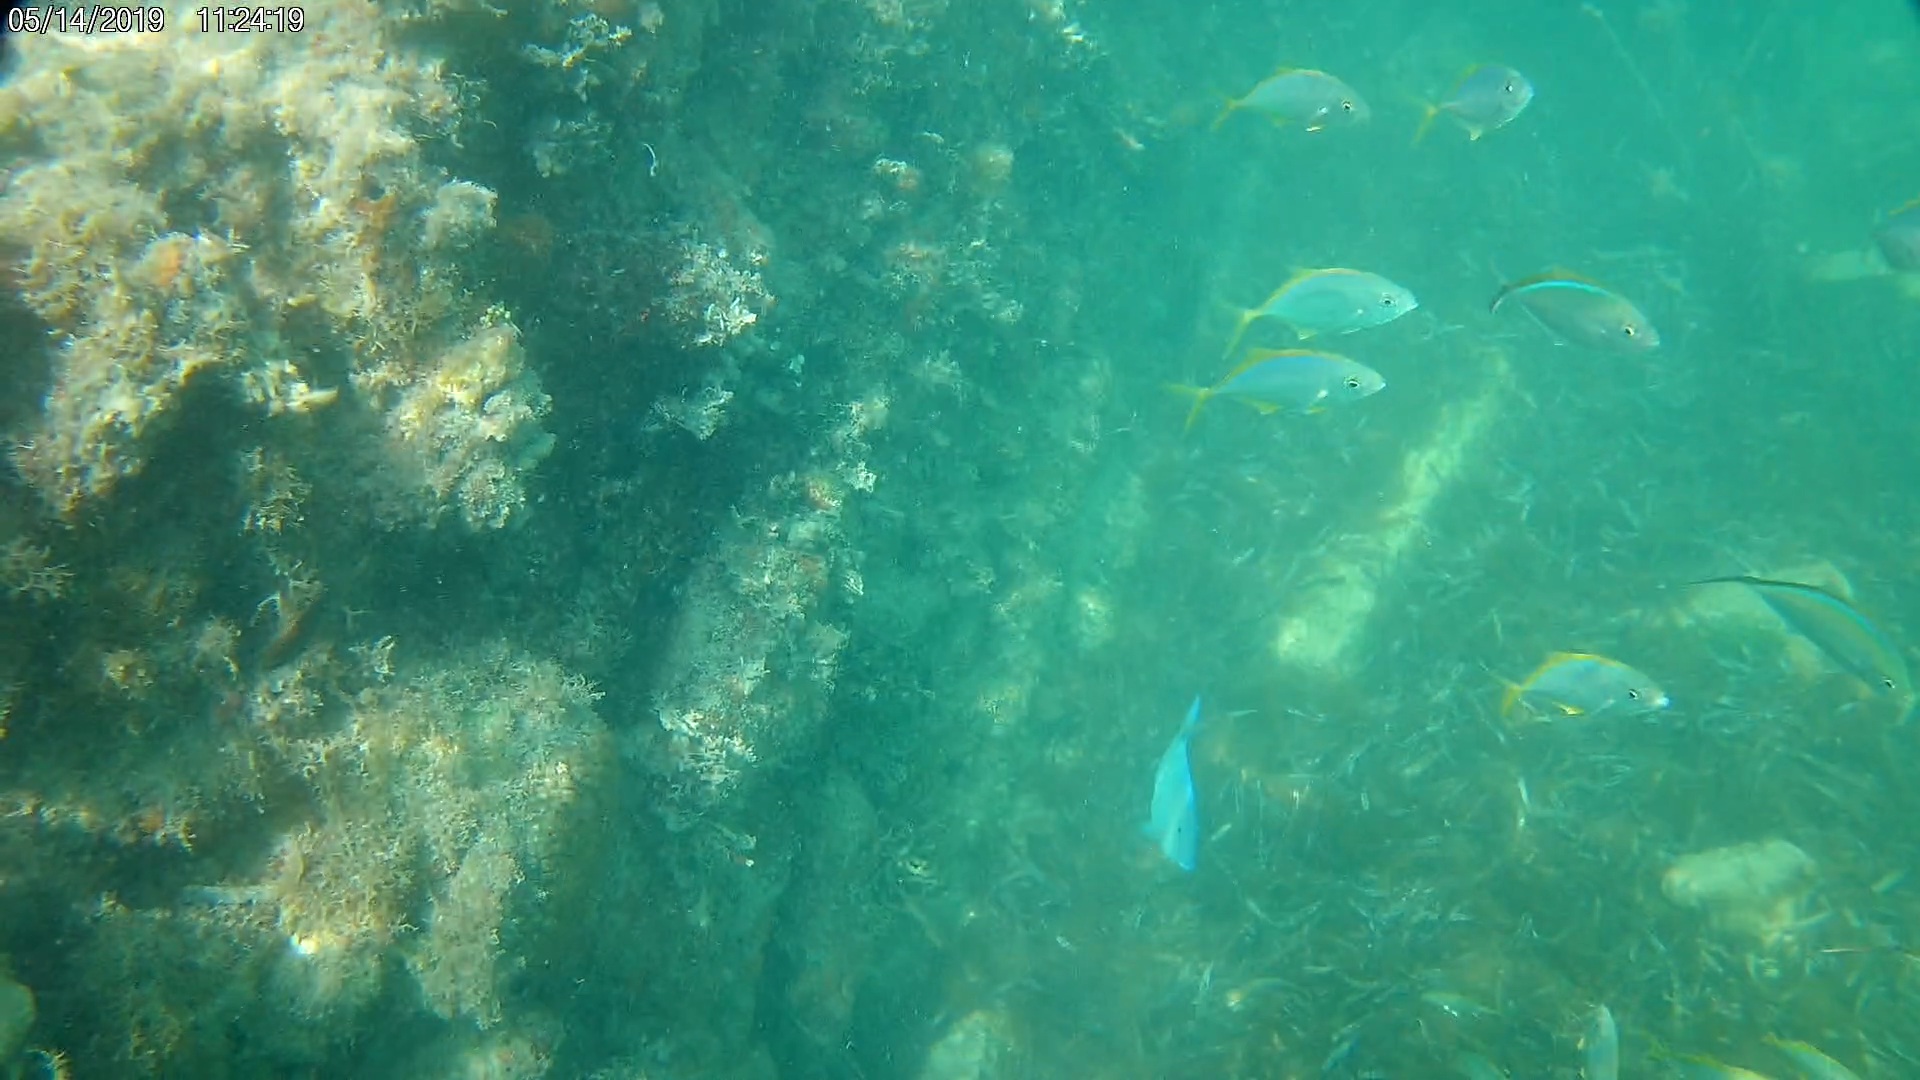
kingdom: Animalia
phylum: Chordata
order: Perciformes
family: Acanthuridae
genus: Acanthurus
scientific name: Acanthurus coeruleus
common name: Blue tang
